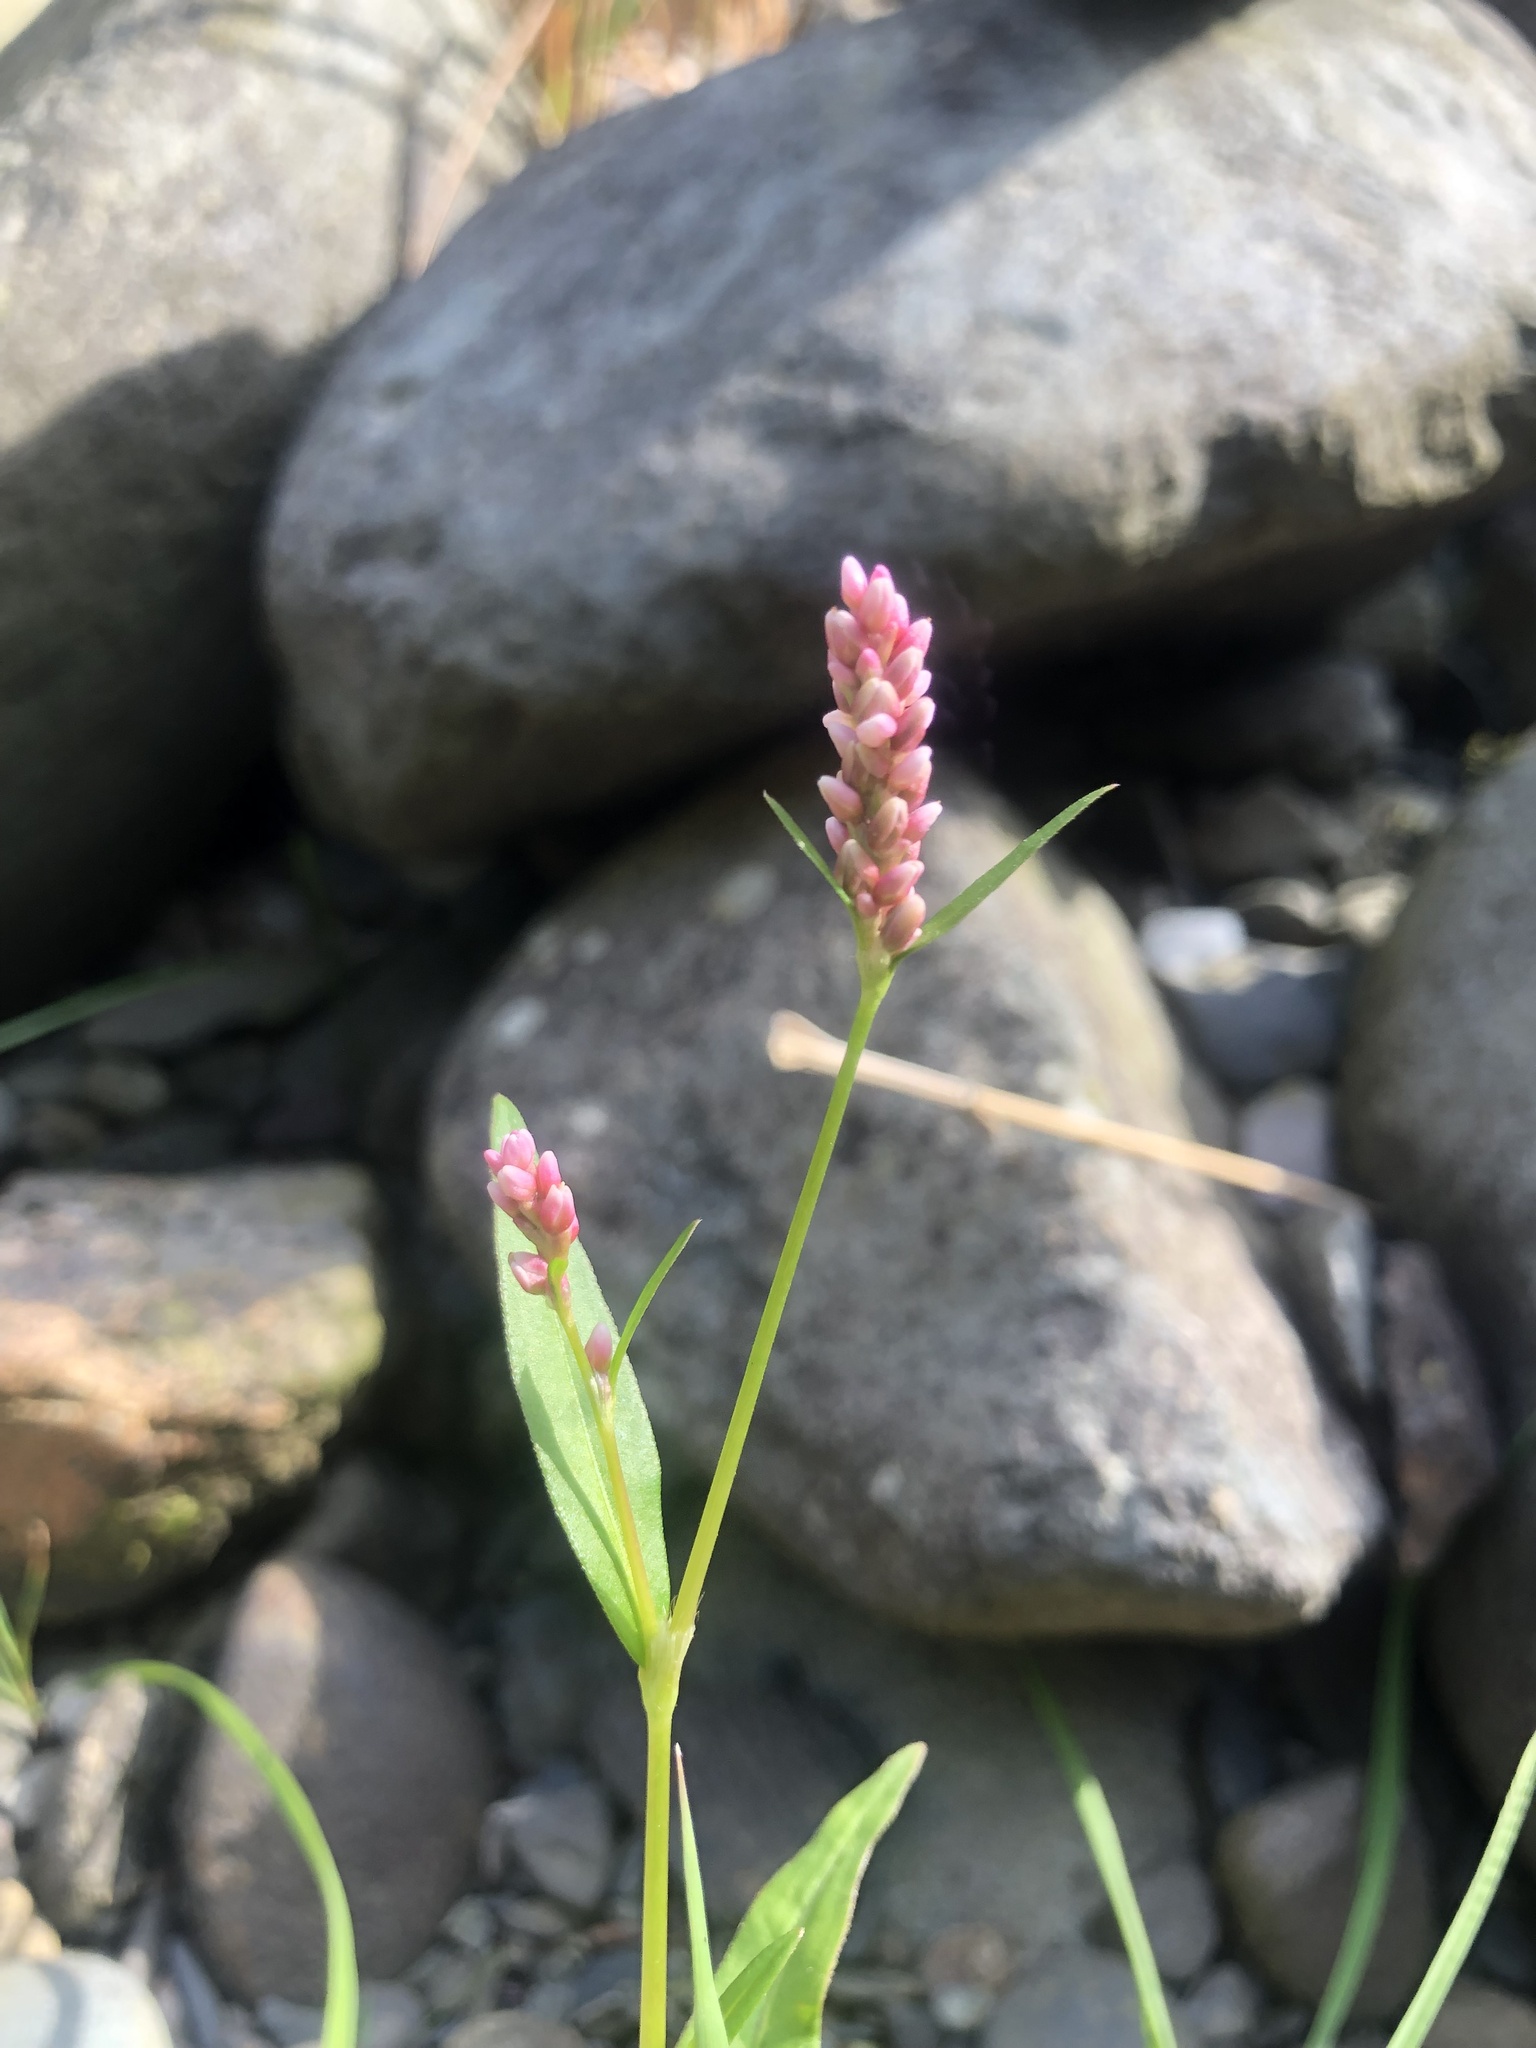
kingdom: Plantae
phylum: Tracheophyta
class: Magnoliopsida
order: Caryophyllales
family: Polygonaceae
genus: Persicaria
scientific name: Persicaria maculosa
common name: Redshank
